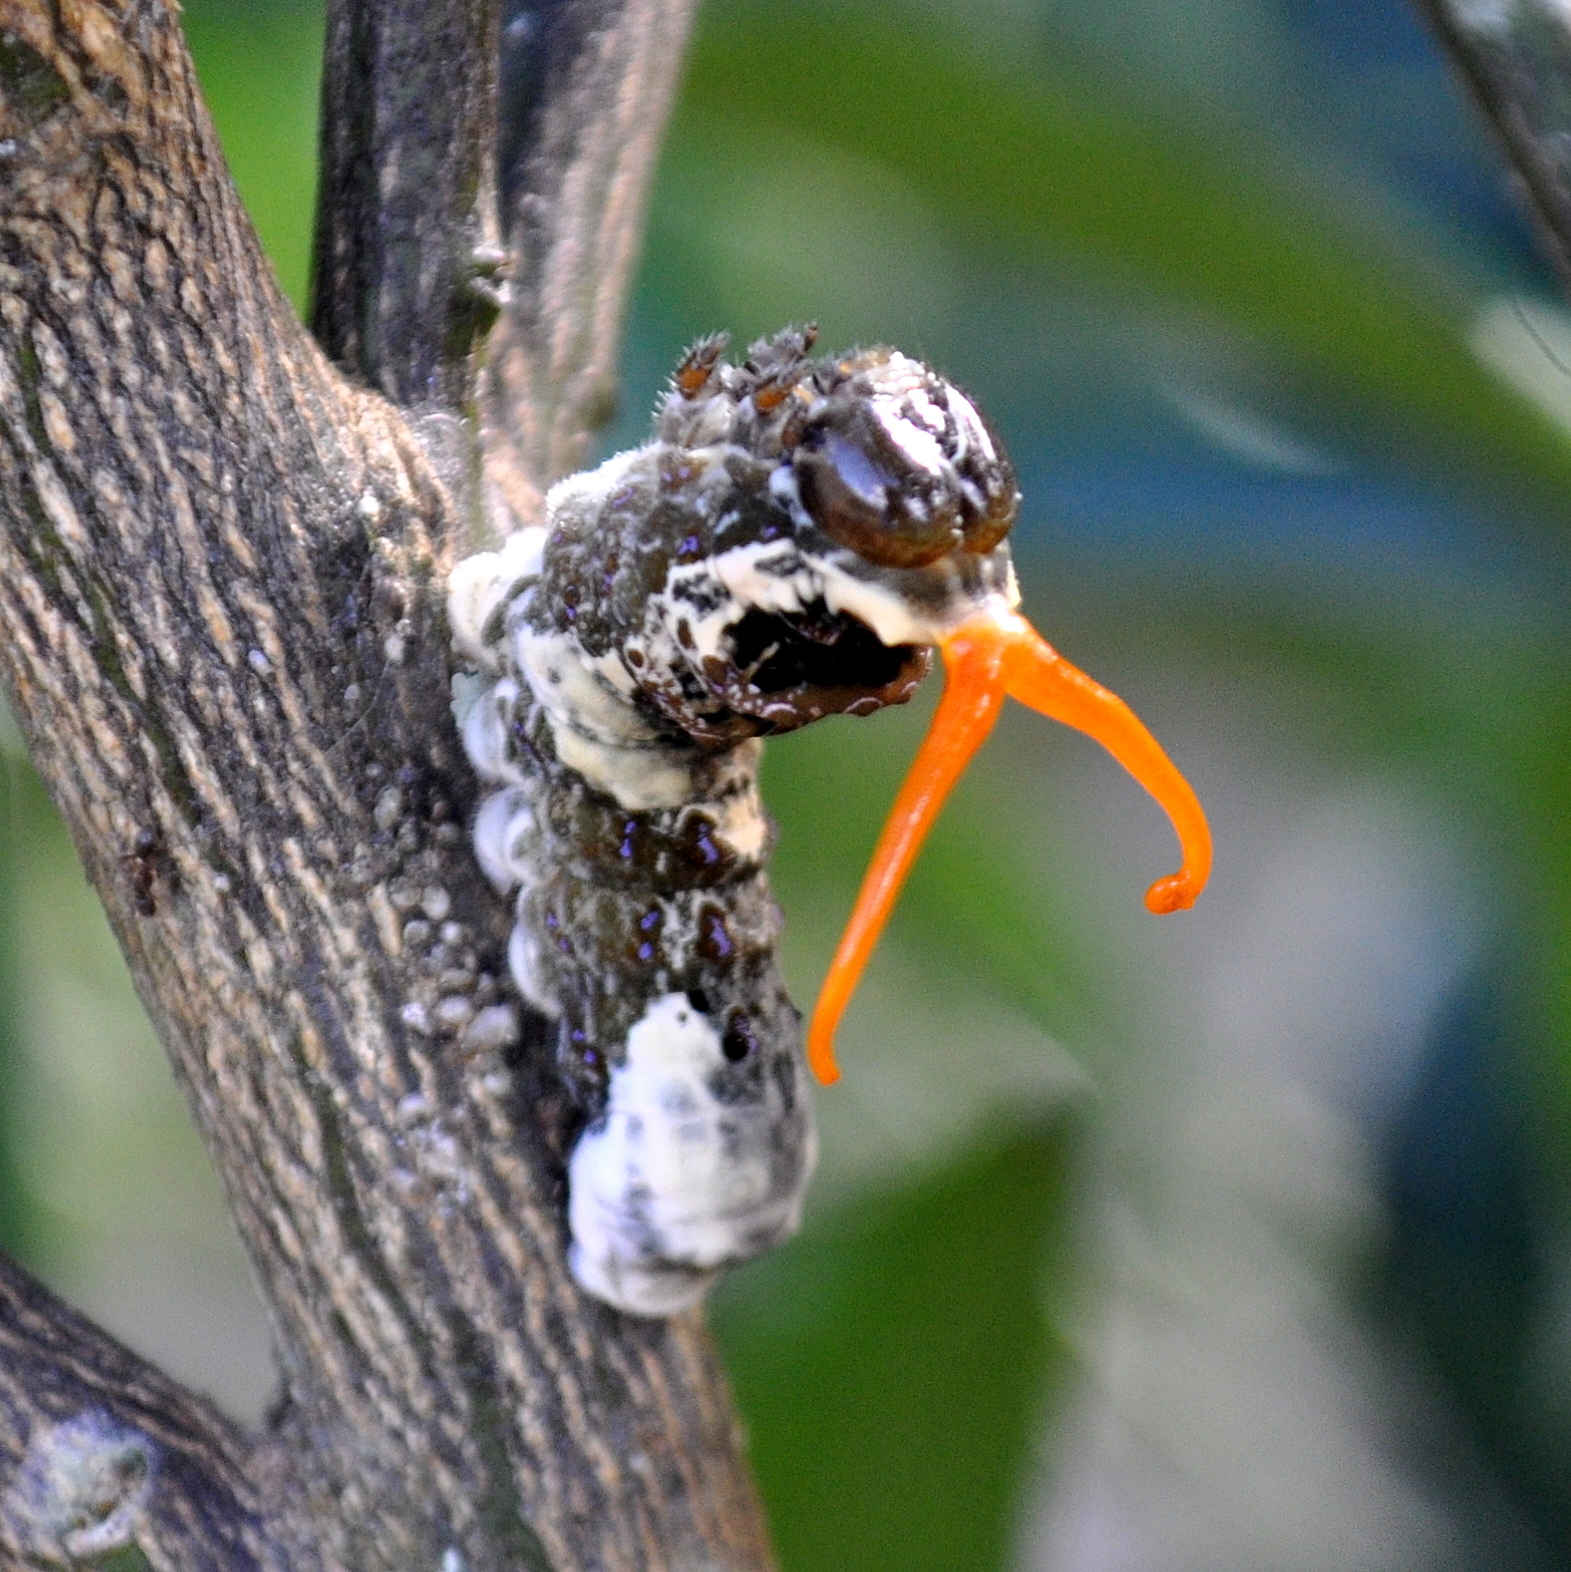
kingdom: Animalia
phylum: Arthropoda
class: Insecta
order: Lepidoptera
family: Papilionidae
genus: Papilio
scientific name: Papilio thoas
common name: King swallowtail
